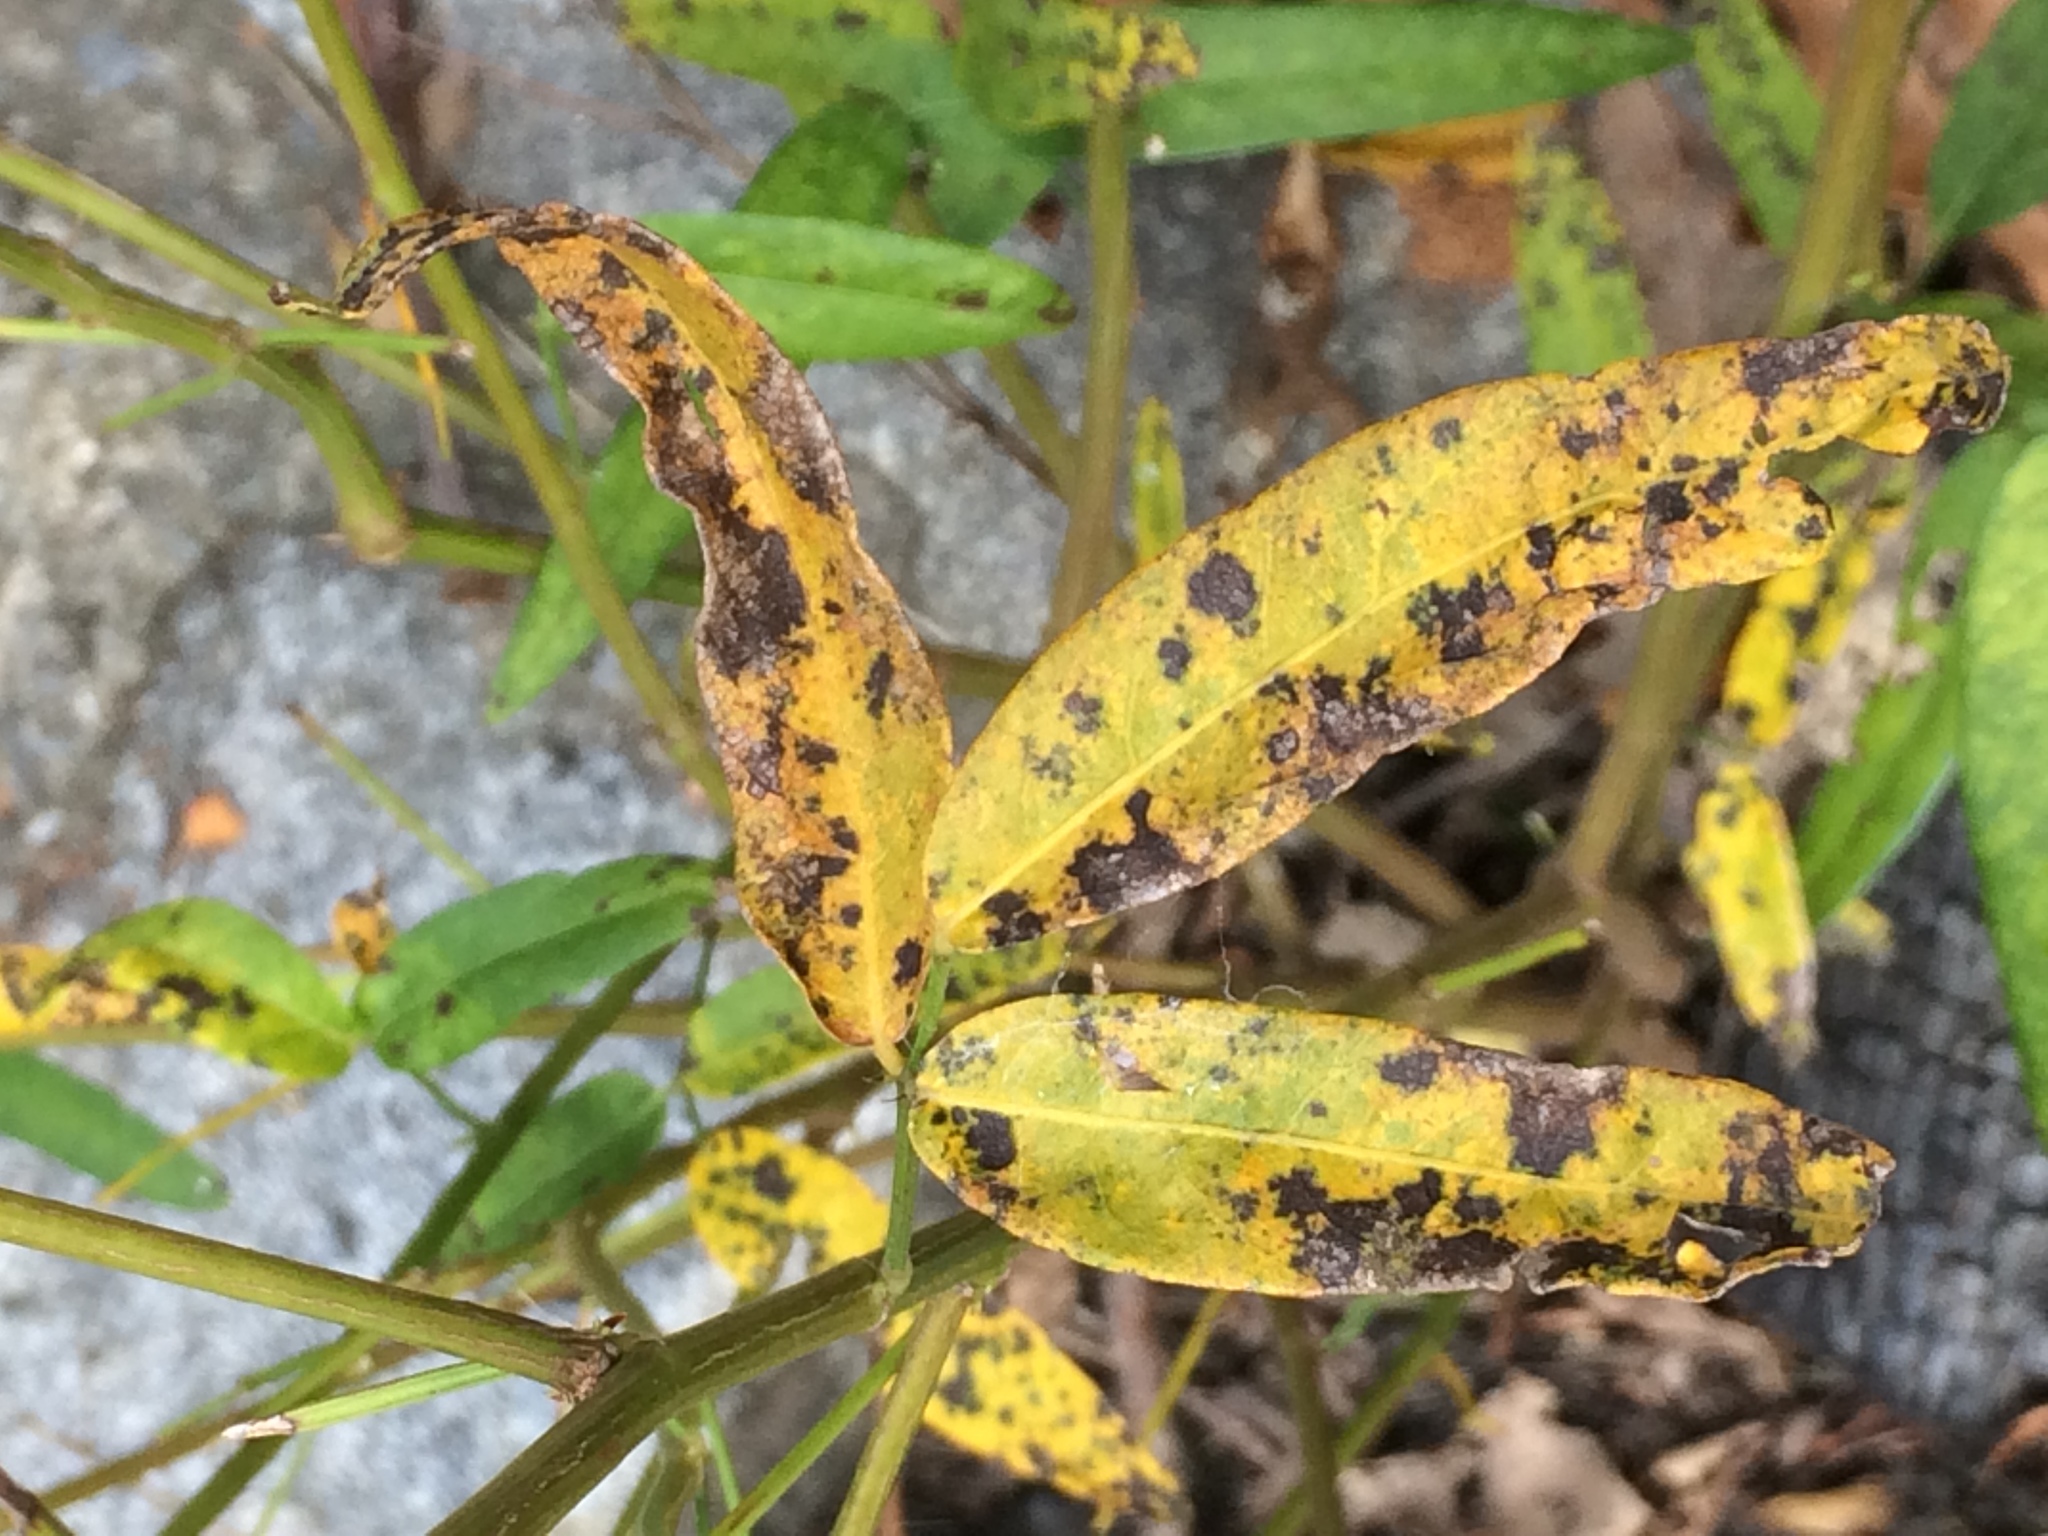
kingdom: Plantae
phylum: Tracheophyta
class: Magnoliopsida
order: Fabales
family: Fabaceae
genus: Desmodium
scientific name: Desmodium paniculatum
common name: Panicled tick-clover
